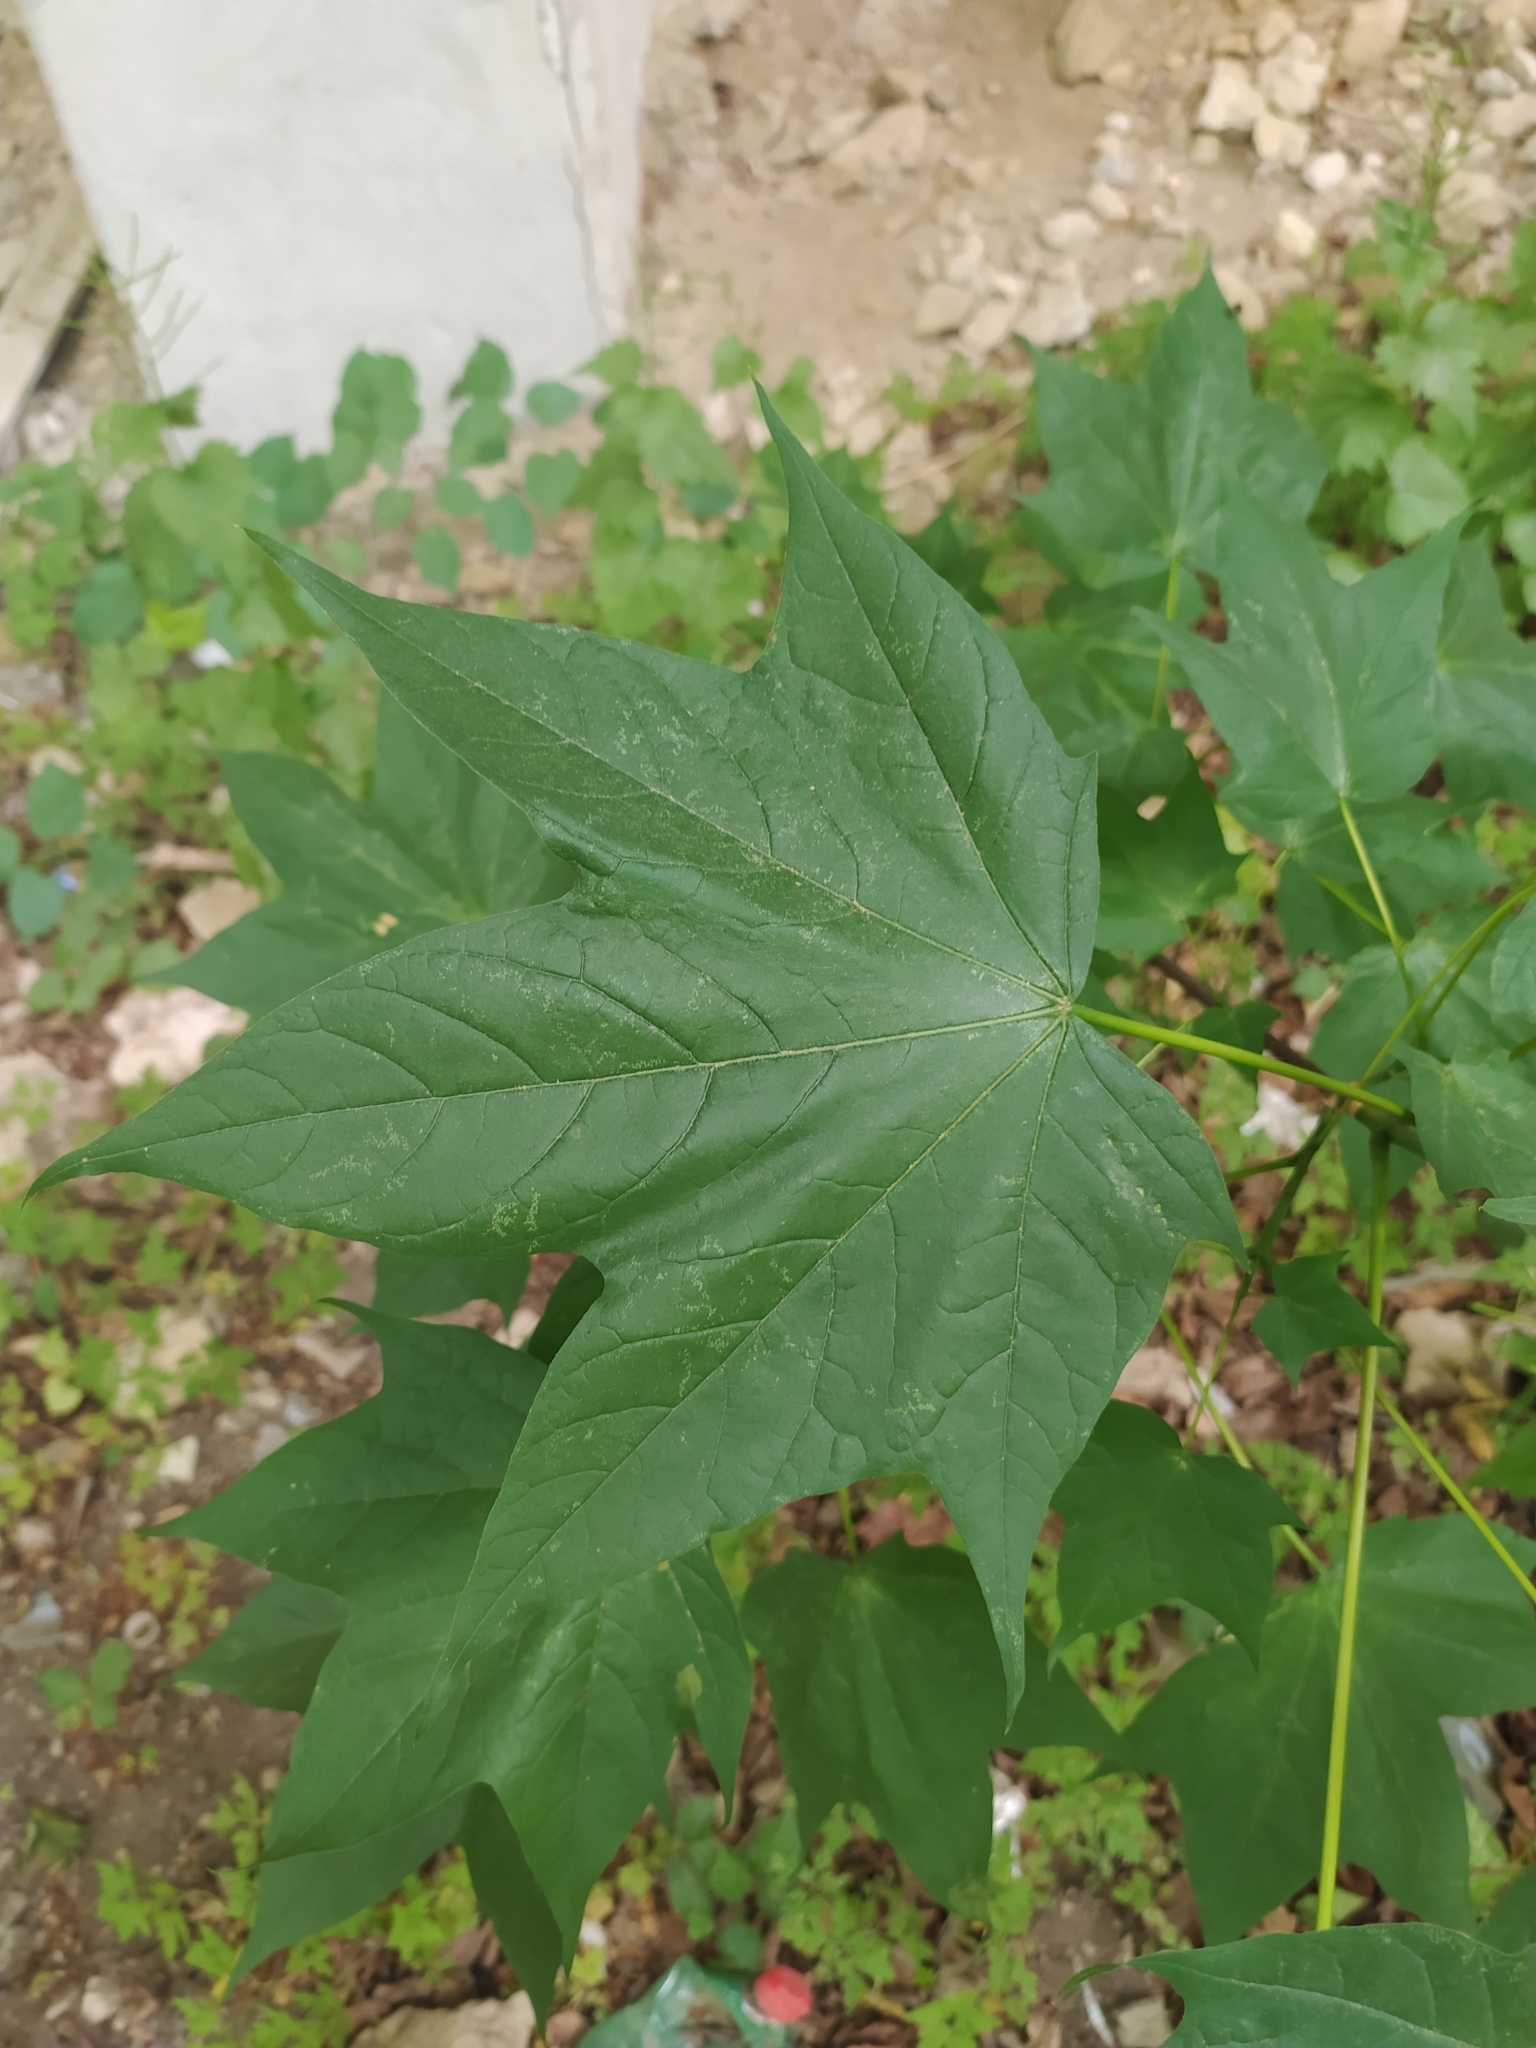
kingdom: Plantae
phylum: Tracheophyta
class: Magnoliopsida
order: Sapindales
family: Sapindaceae
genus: Acer
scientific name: Acer lobelii
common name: Lobel's maple
